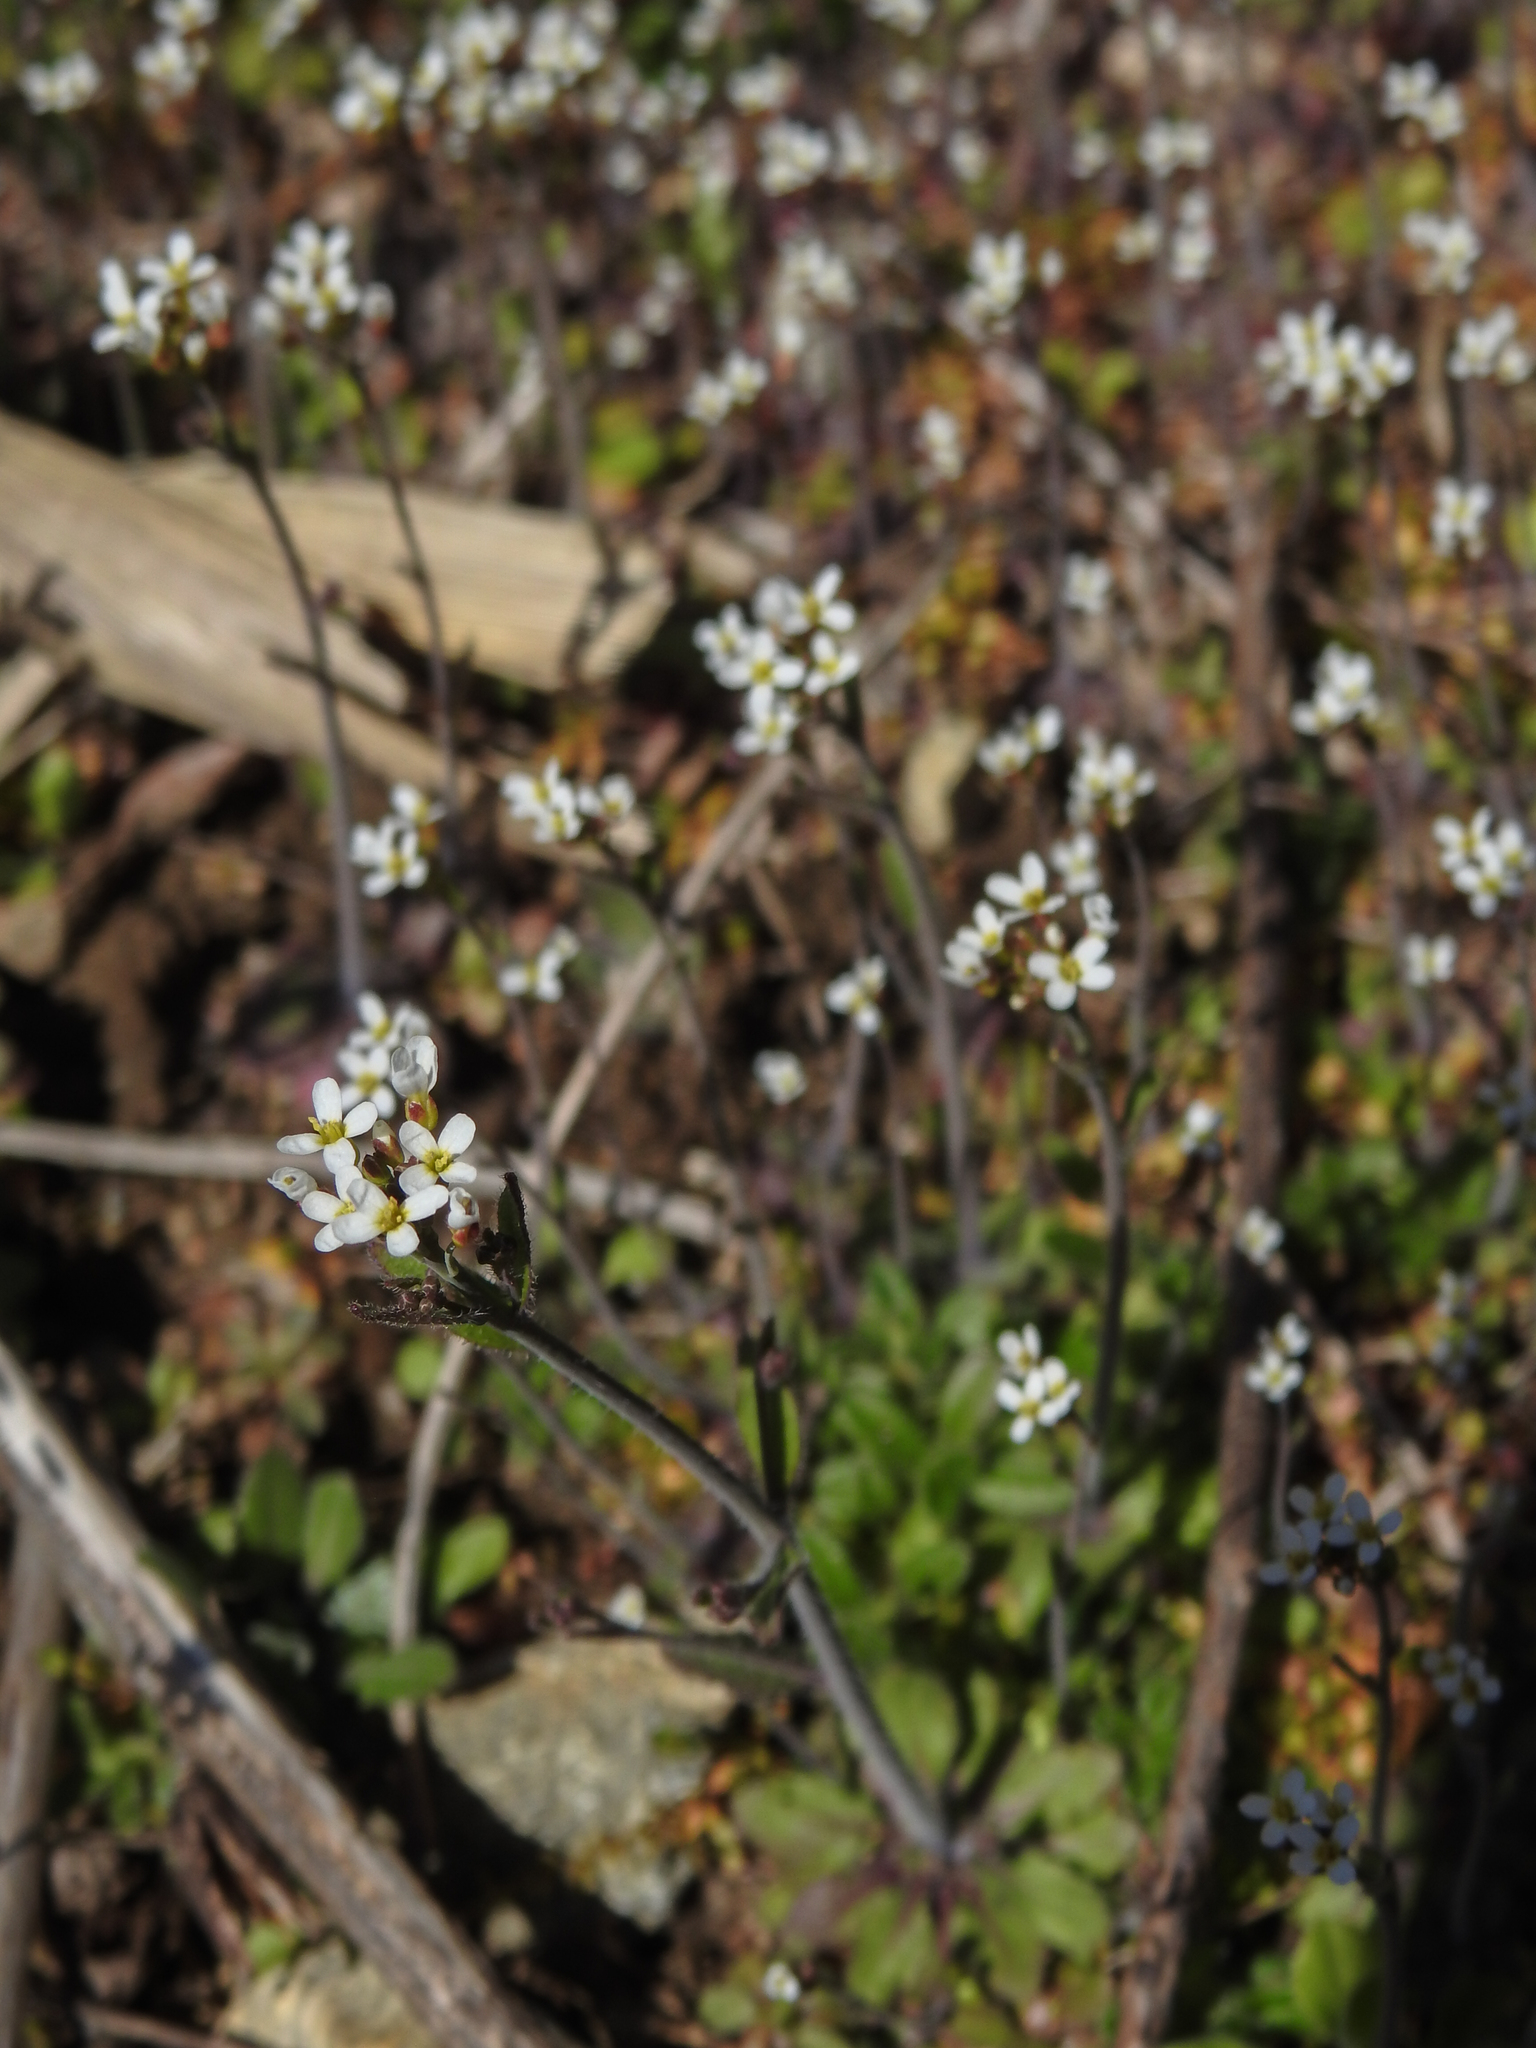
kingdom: Plantae
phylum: Tracheophyta
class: Magnoliopsida
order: Brassicales
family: Brassicaceae
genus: Arabidopsis
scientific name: Arabidopsis thaliana
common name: Thale cress
